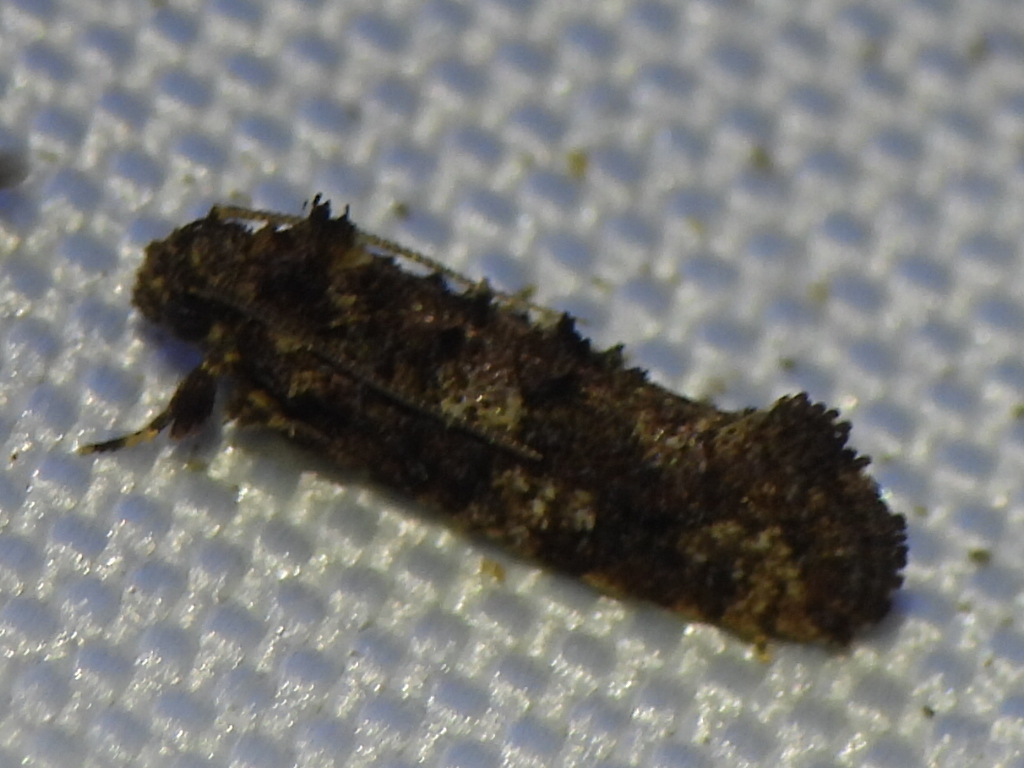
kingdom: Animalia
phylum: Arthropoda
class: Insecta
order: Lepidoptera
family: Tineidae
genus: Acrolophus
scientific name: Acrolophus cressoni
